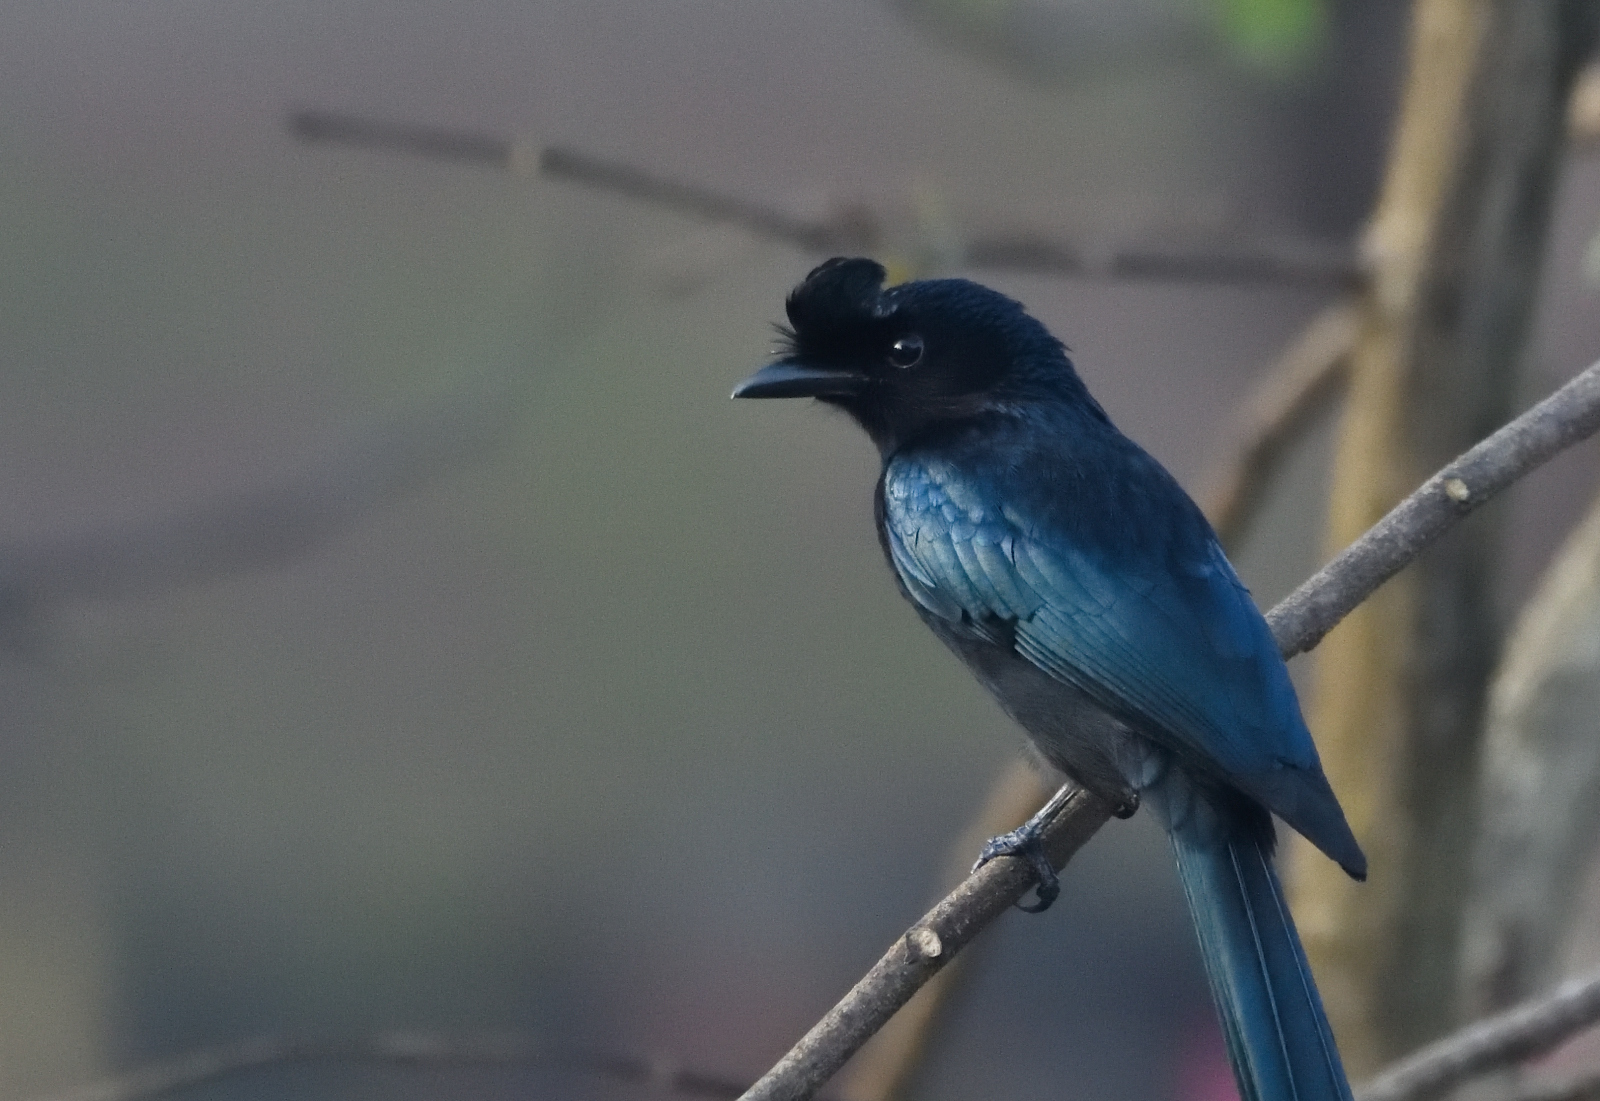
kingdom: Animalia
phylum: Chordata
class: Aves
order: Passeriformes
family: Dicruridae
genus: Dicrurus
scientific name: Dicrurus paradiseus
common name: Greater racket-tailed drongo
